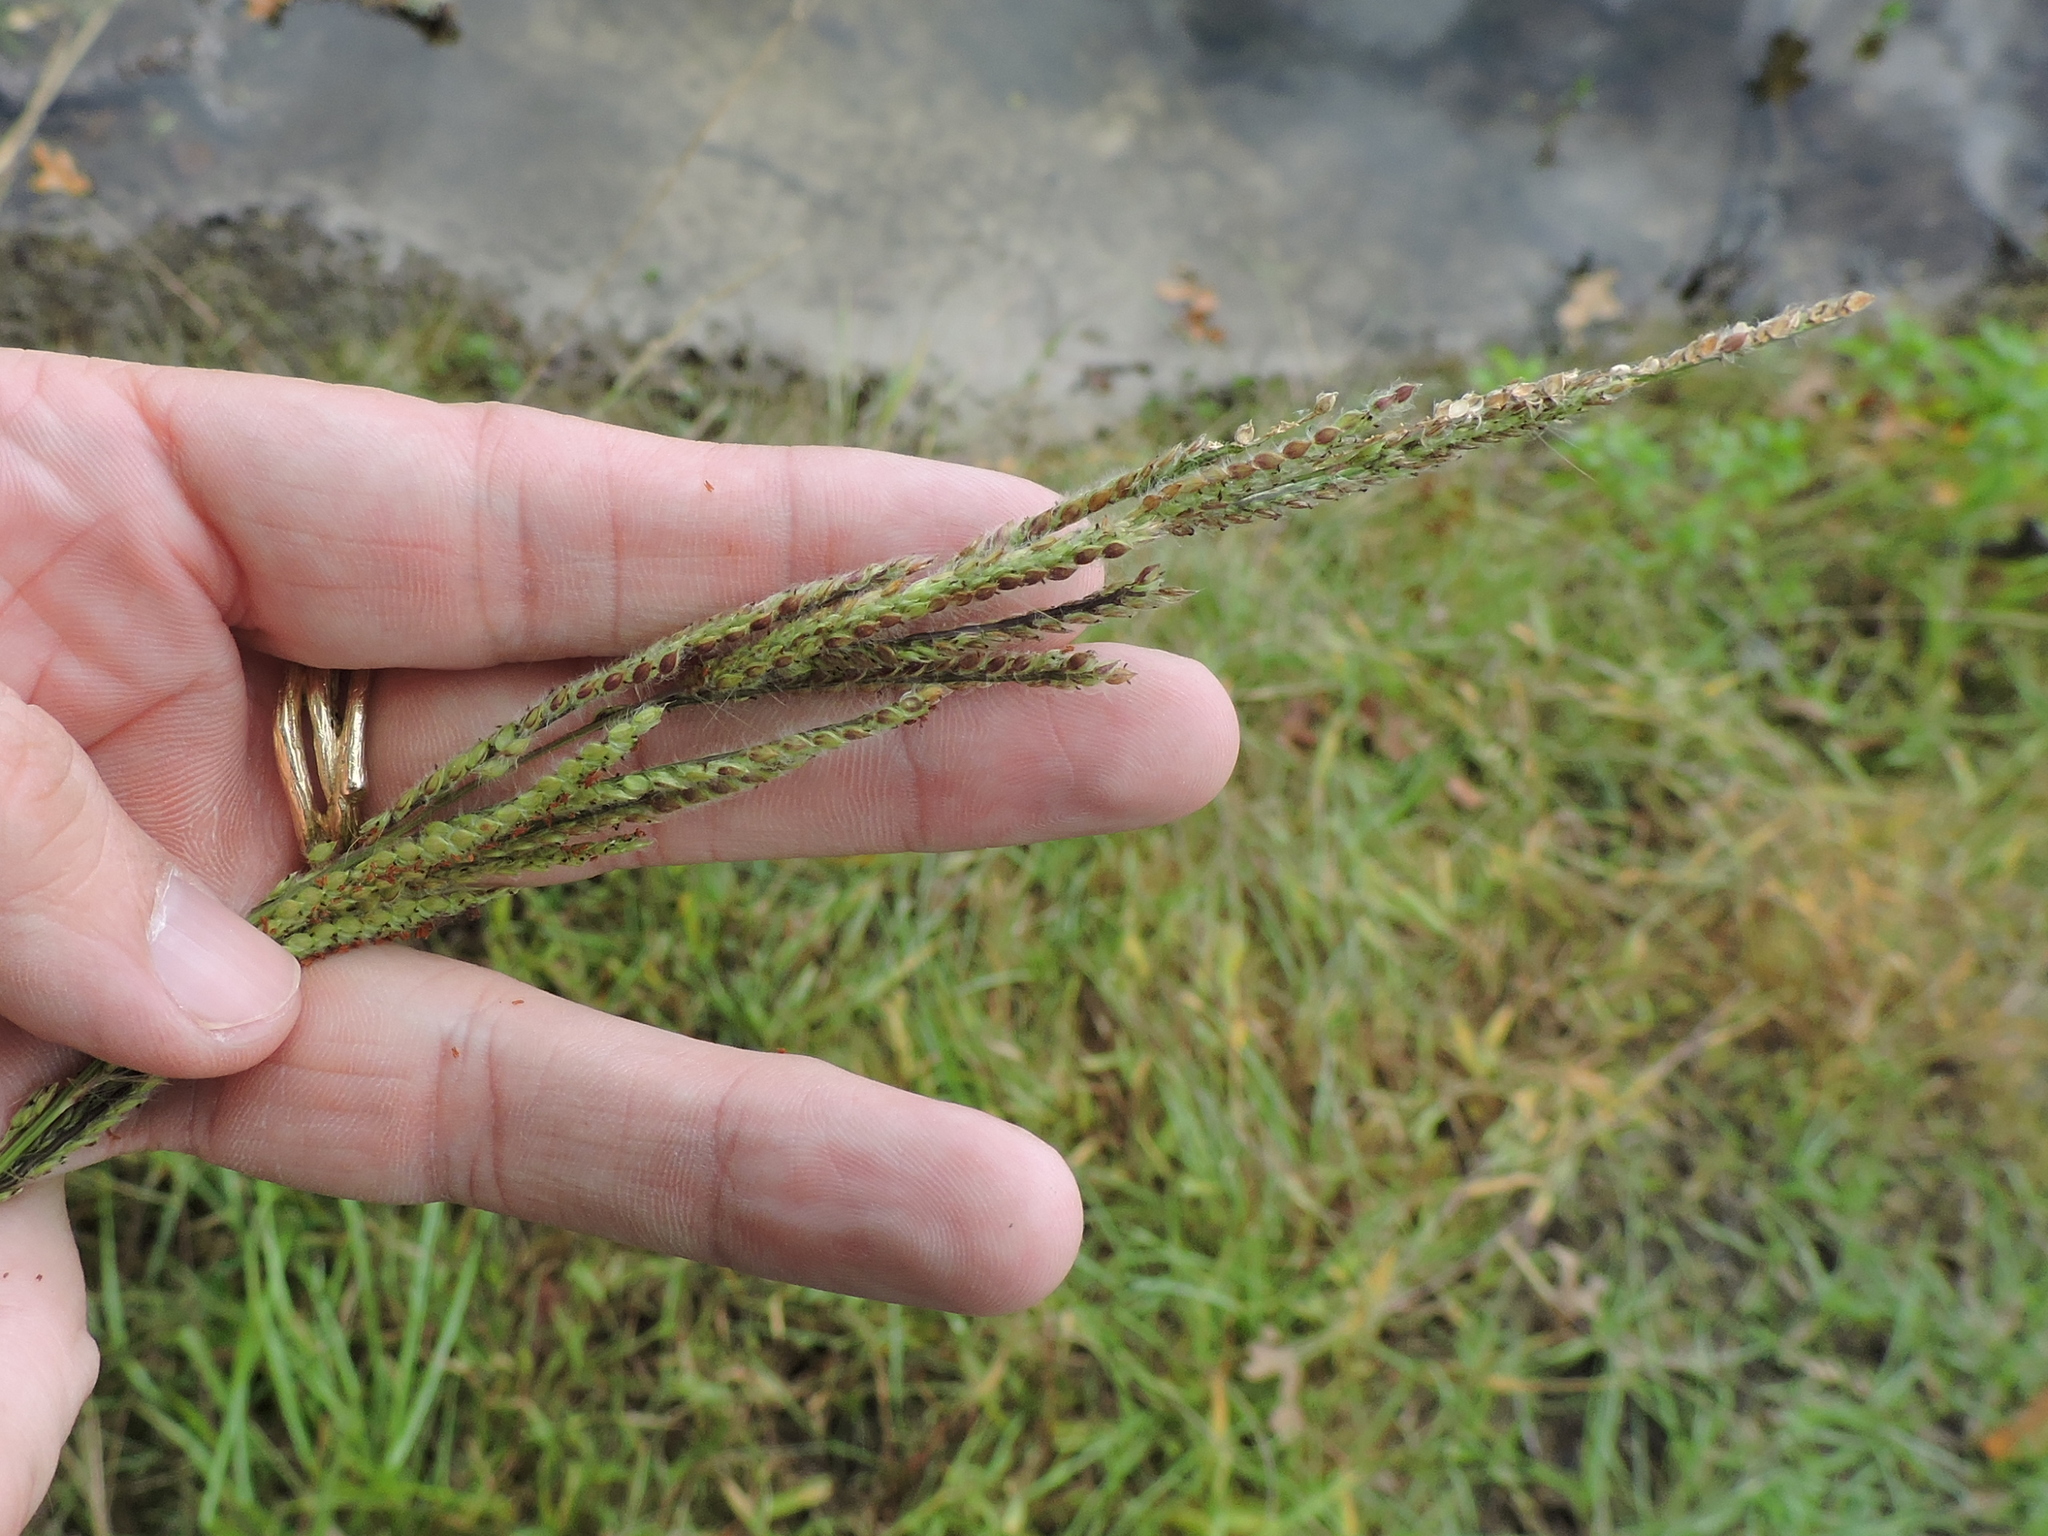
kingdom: Plantae
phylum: Tracheophyta
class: Liliopsida
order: Poales
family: Poaceae
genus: Paspalum
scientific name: Paspalum urvillei
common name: Vasey's grass
